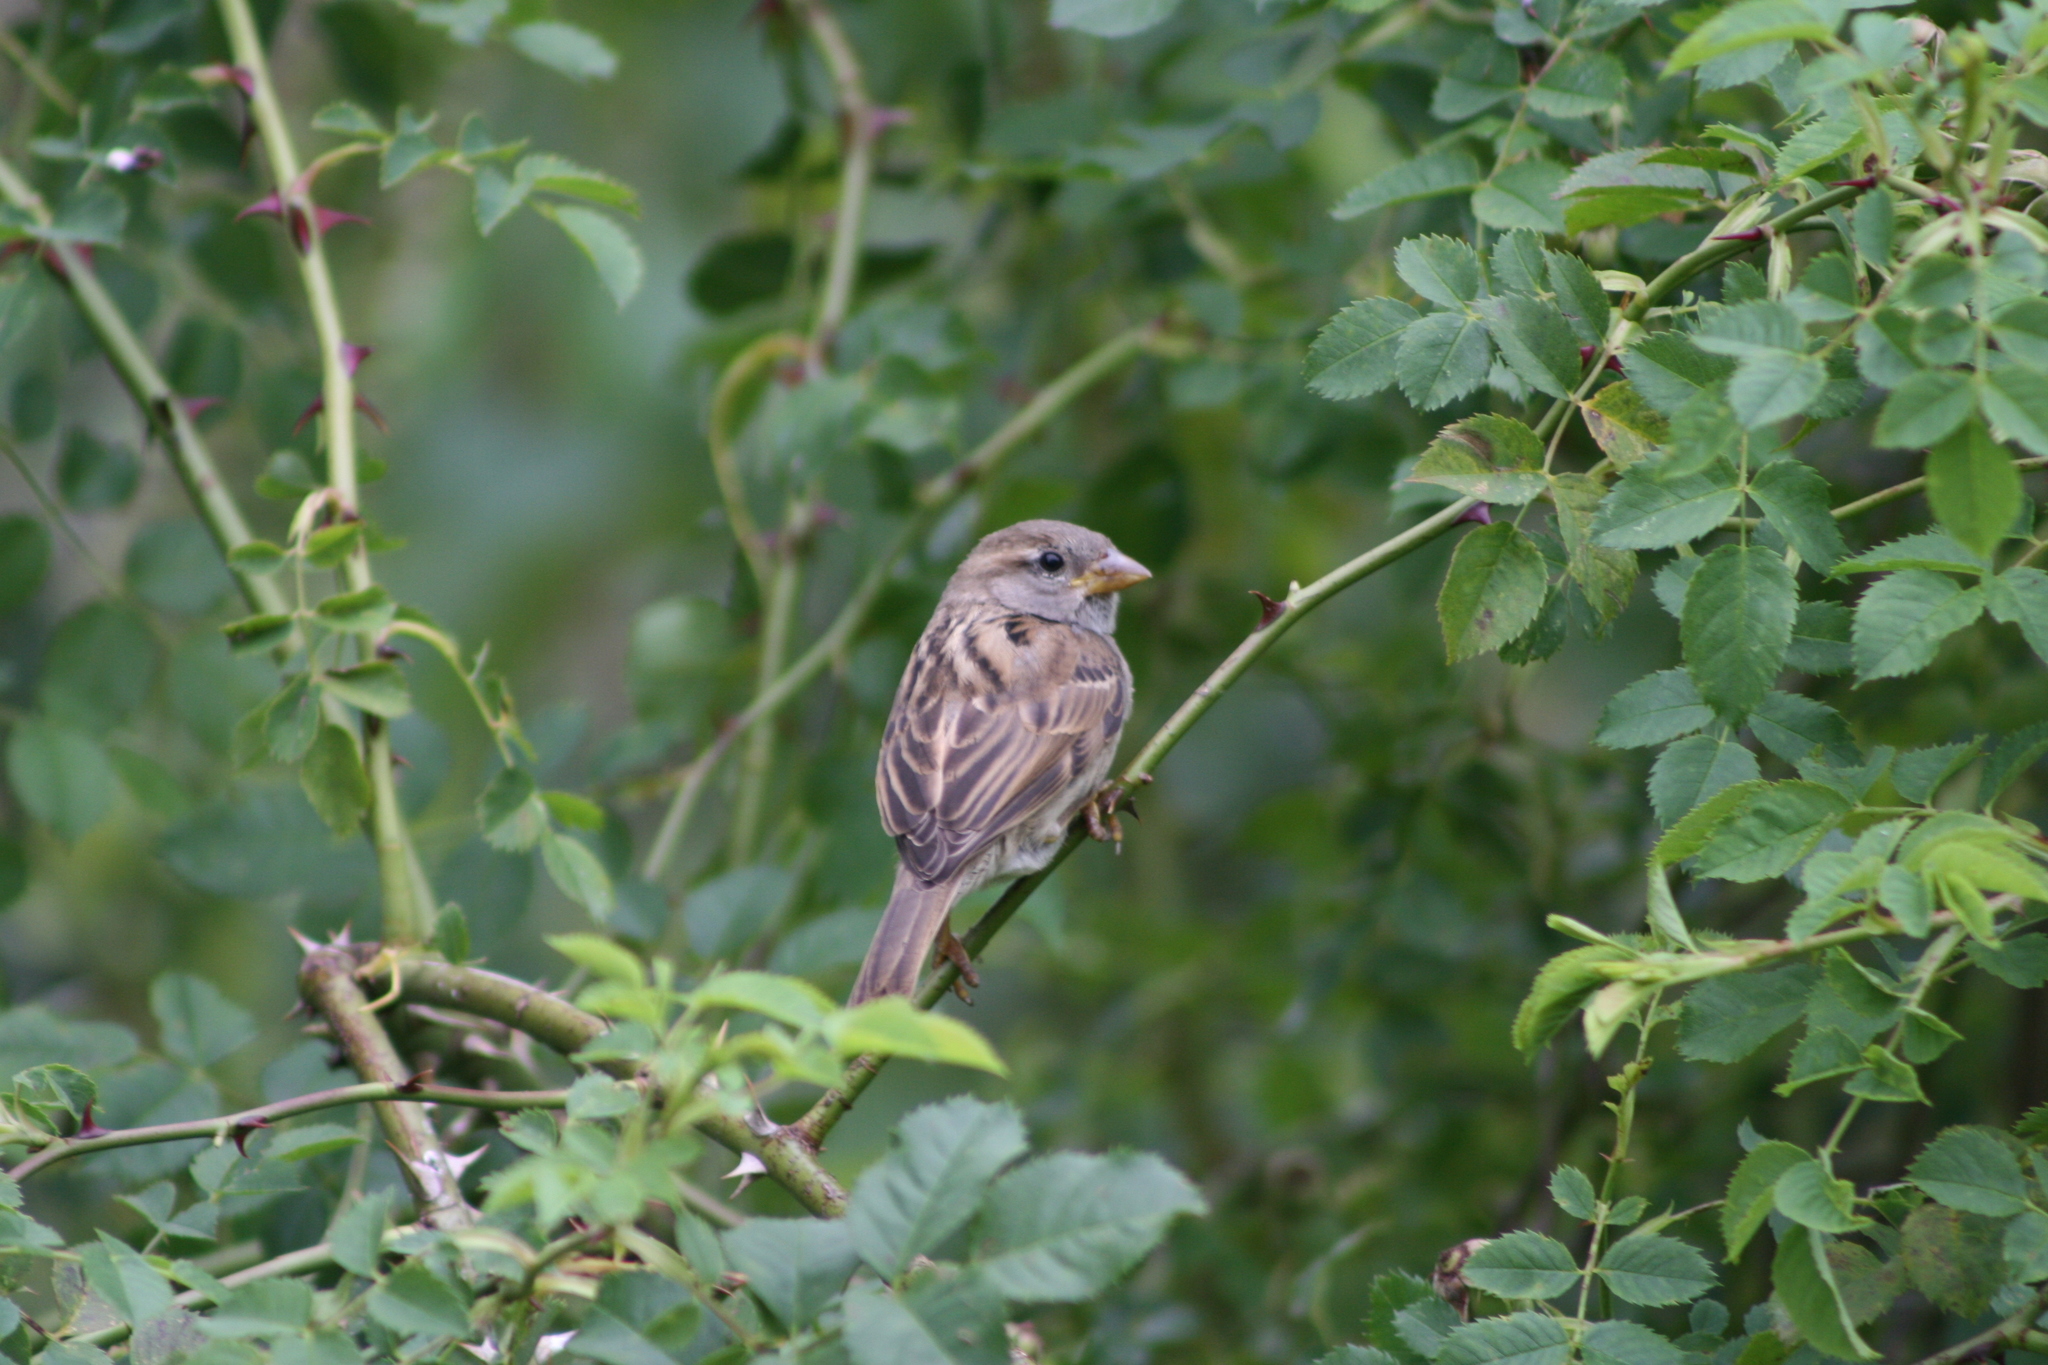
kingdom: Animalia
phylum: Chordata
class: Aves
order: Passeriformes
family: Passeridae
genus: Passer
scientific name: Passer domesticus
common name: House sparrow
